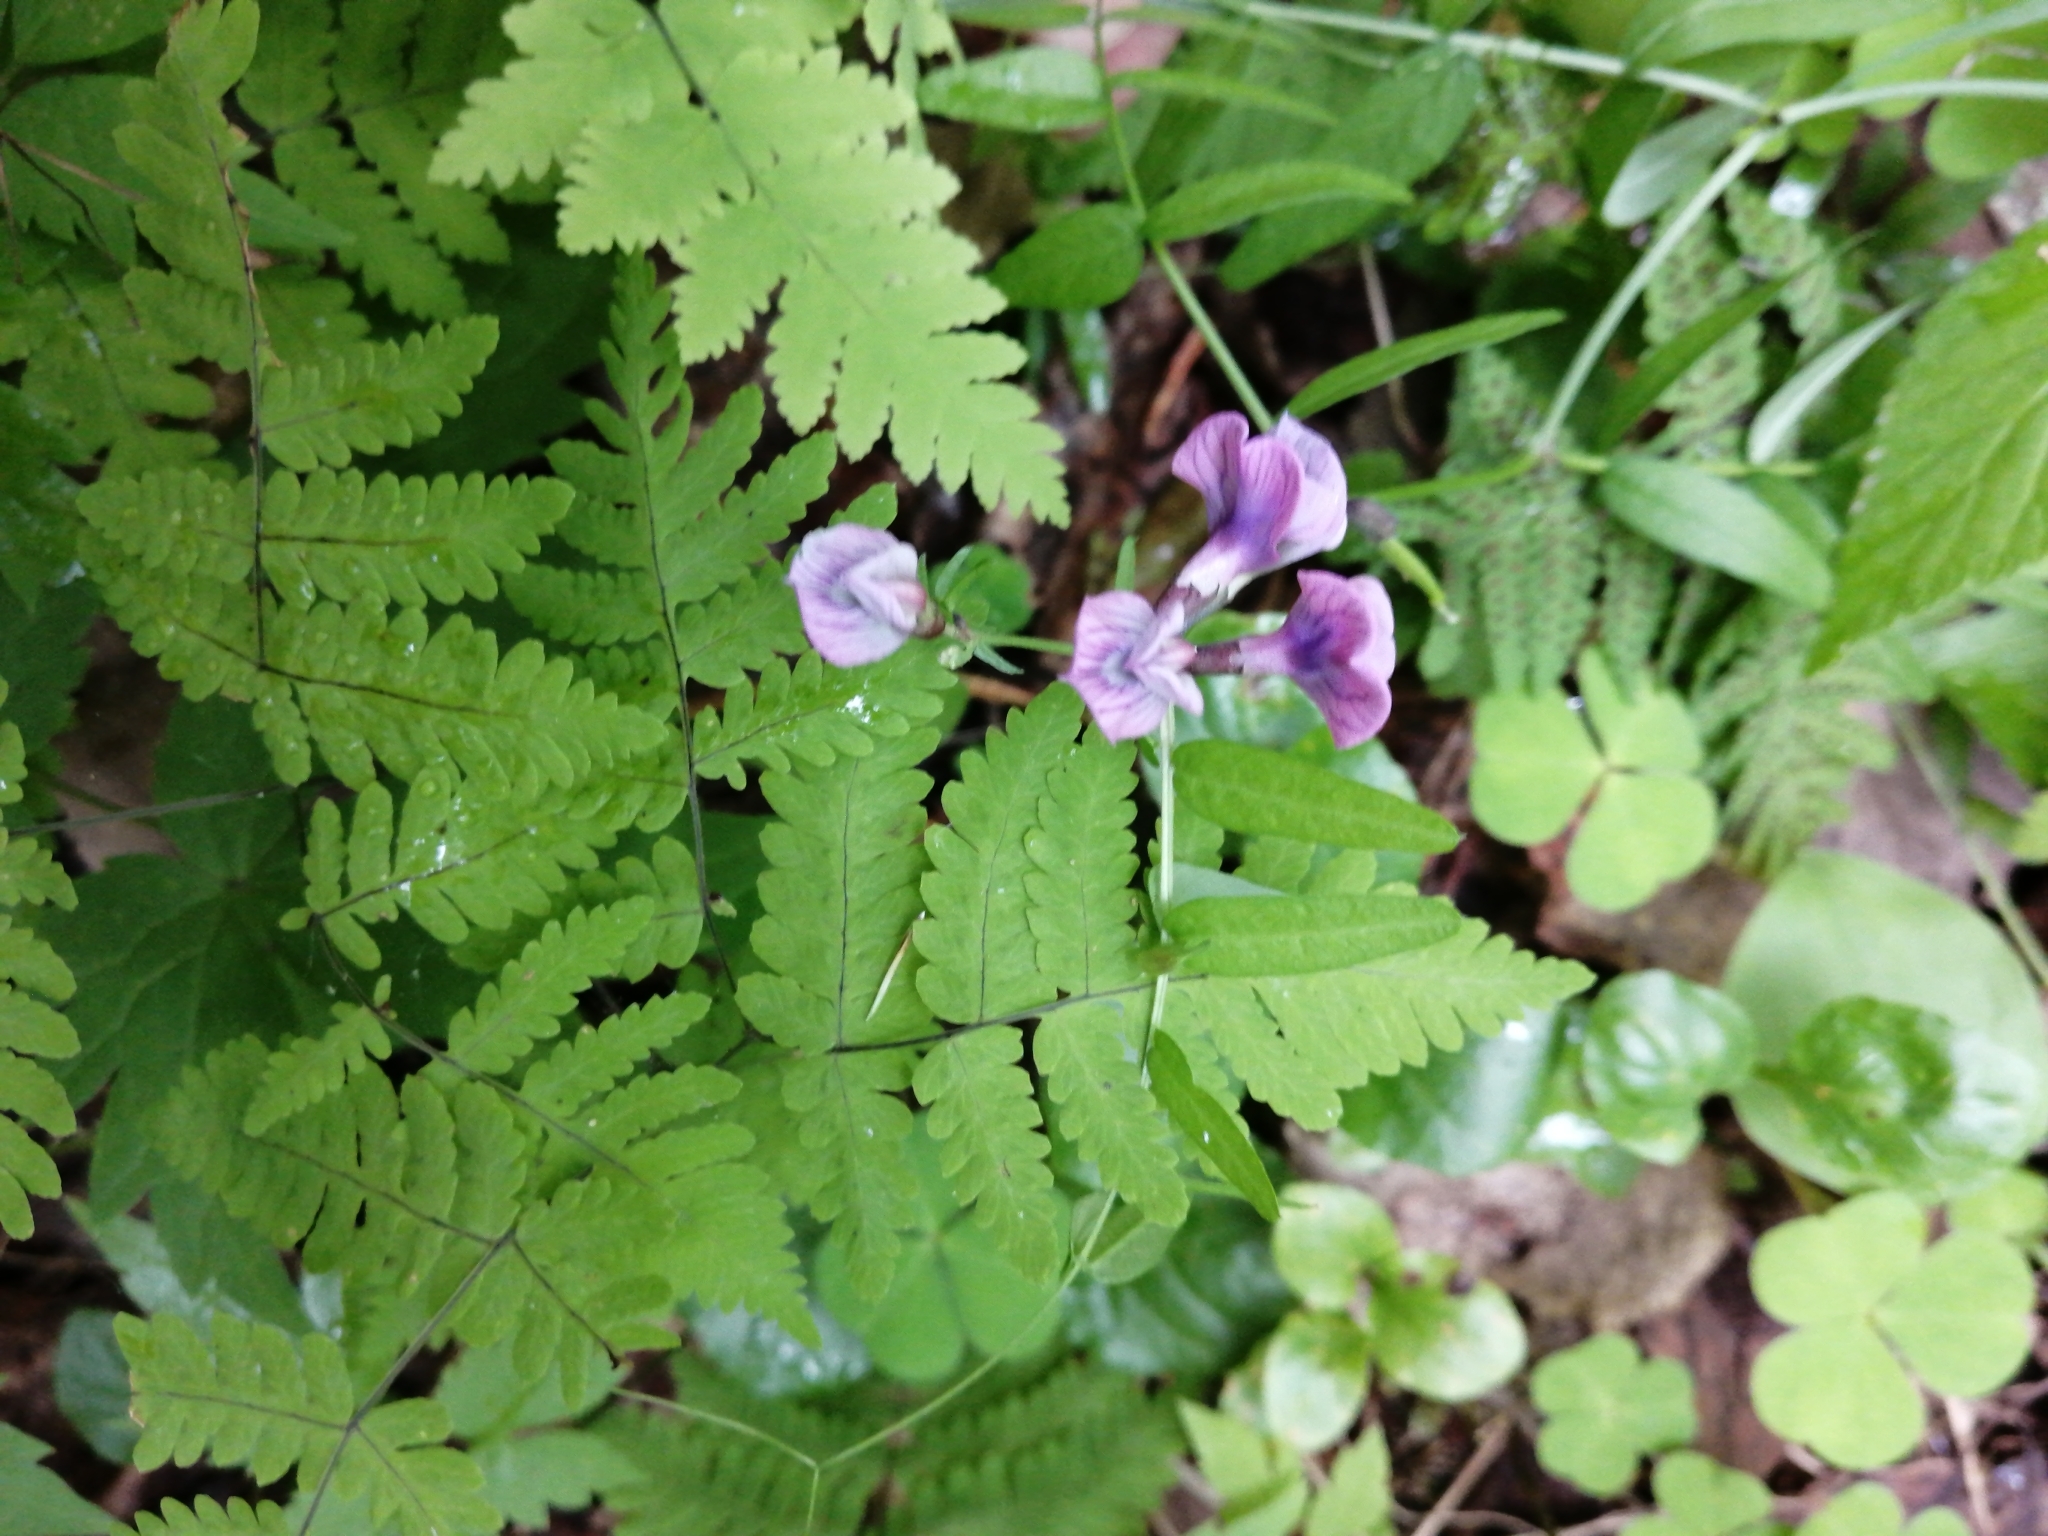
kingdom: Plantae
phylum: Tracheophyta
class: Magnoliopsida
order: Fabales
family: Fabaceae
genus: Vicia
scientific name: Vicia sepium
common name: Bush vetch
